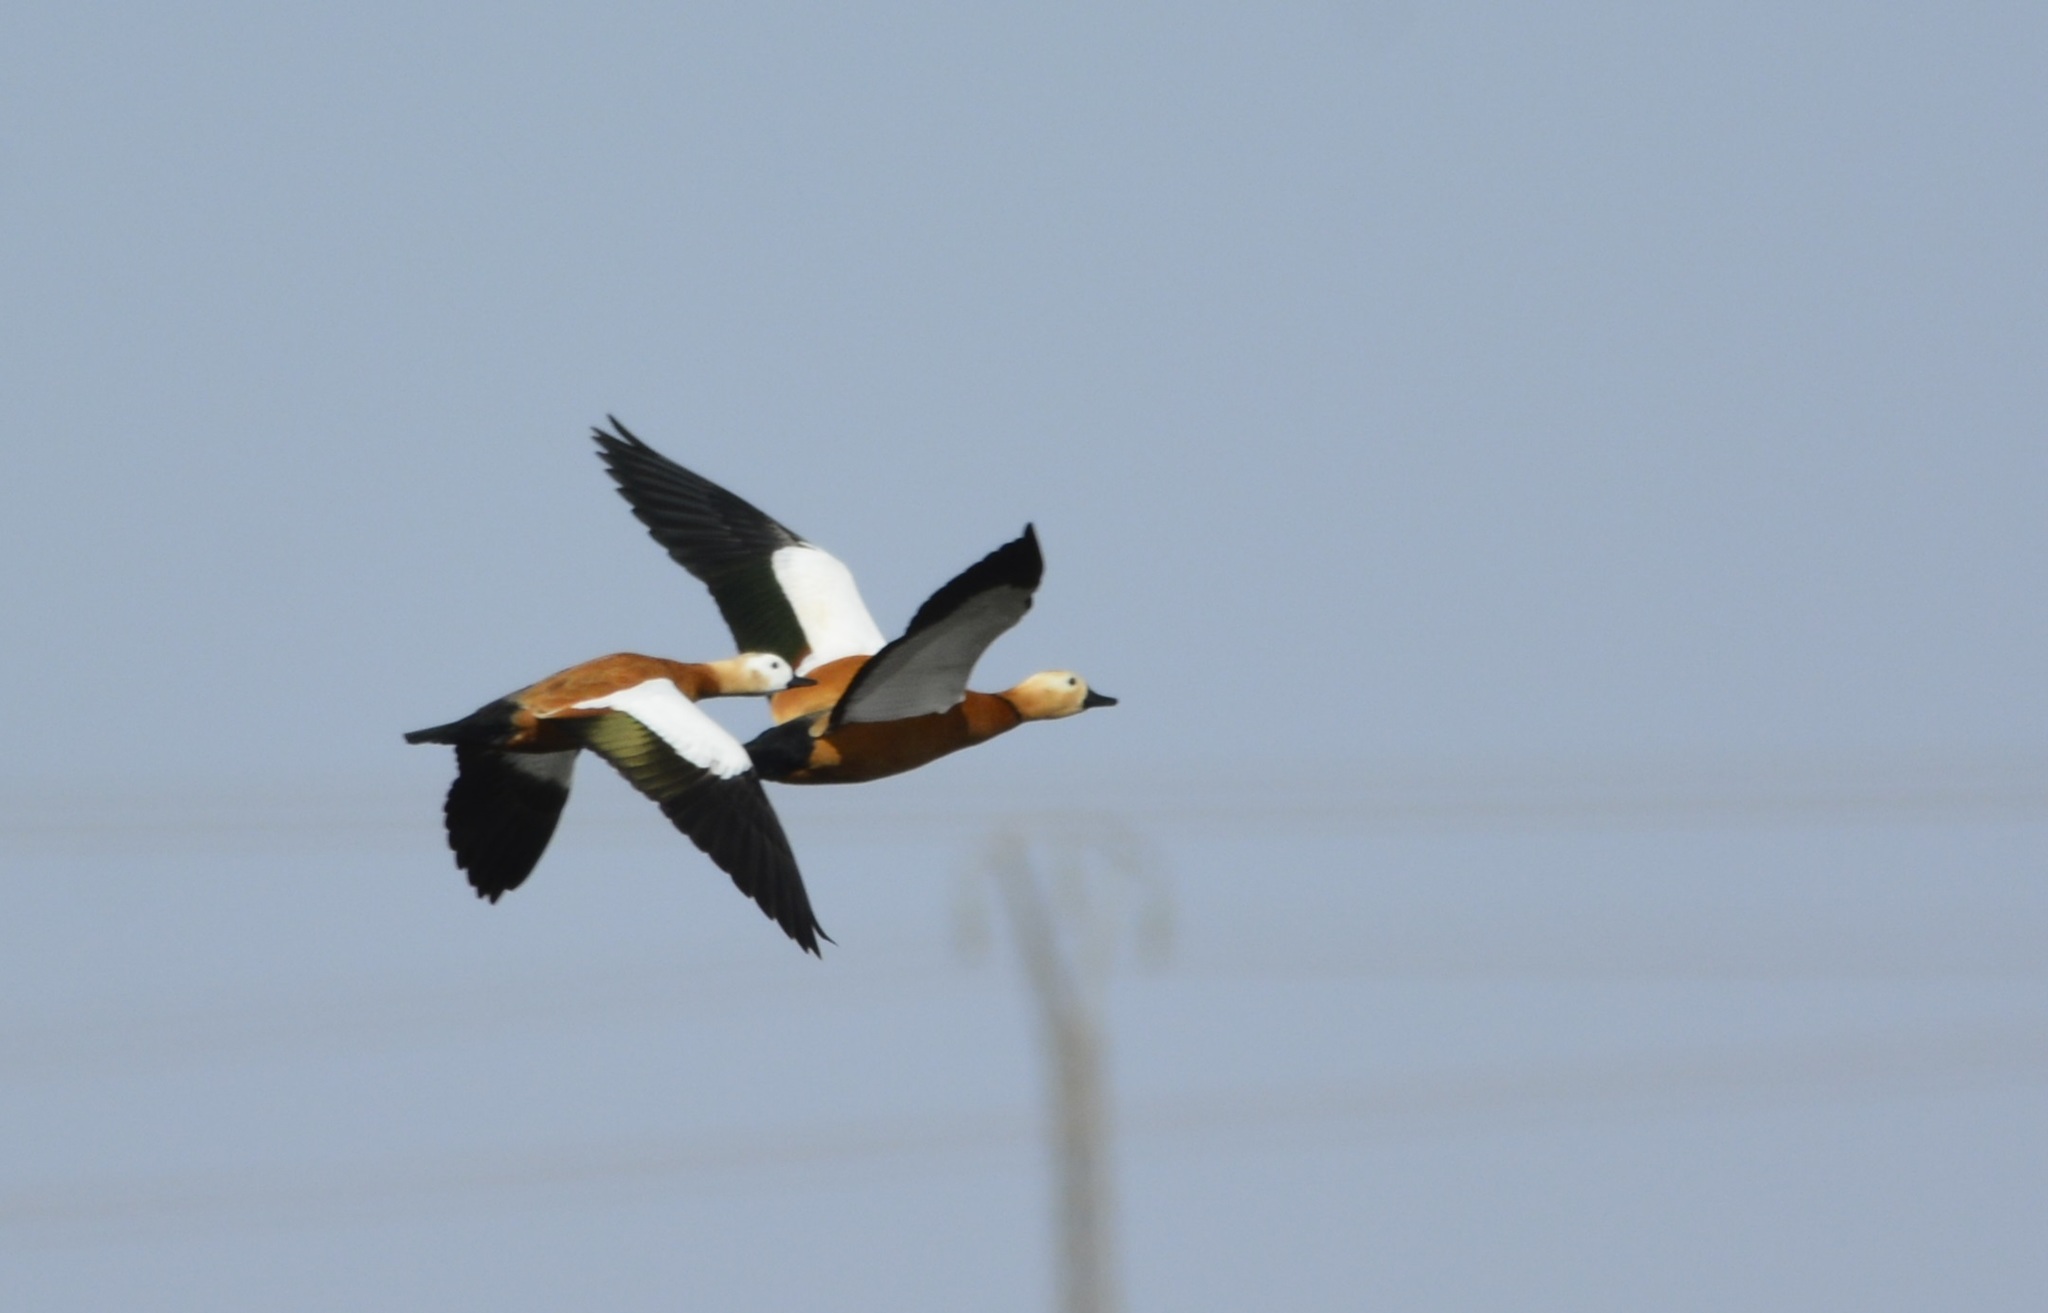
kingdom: Animalia
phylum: Chordata
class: Aves
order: Anseriformes
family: Anatidae
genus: Tadorna
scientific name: Tadorna ferruginea
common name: Ruddy shelduck
